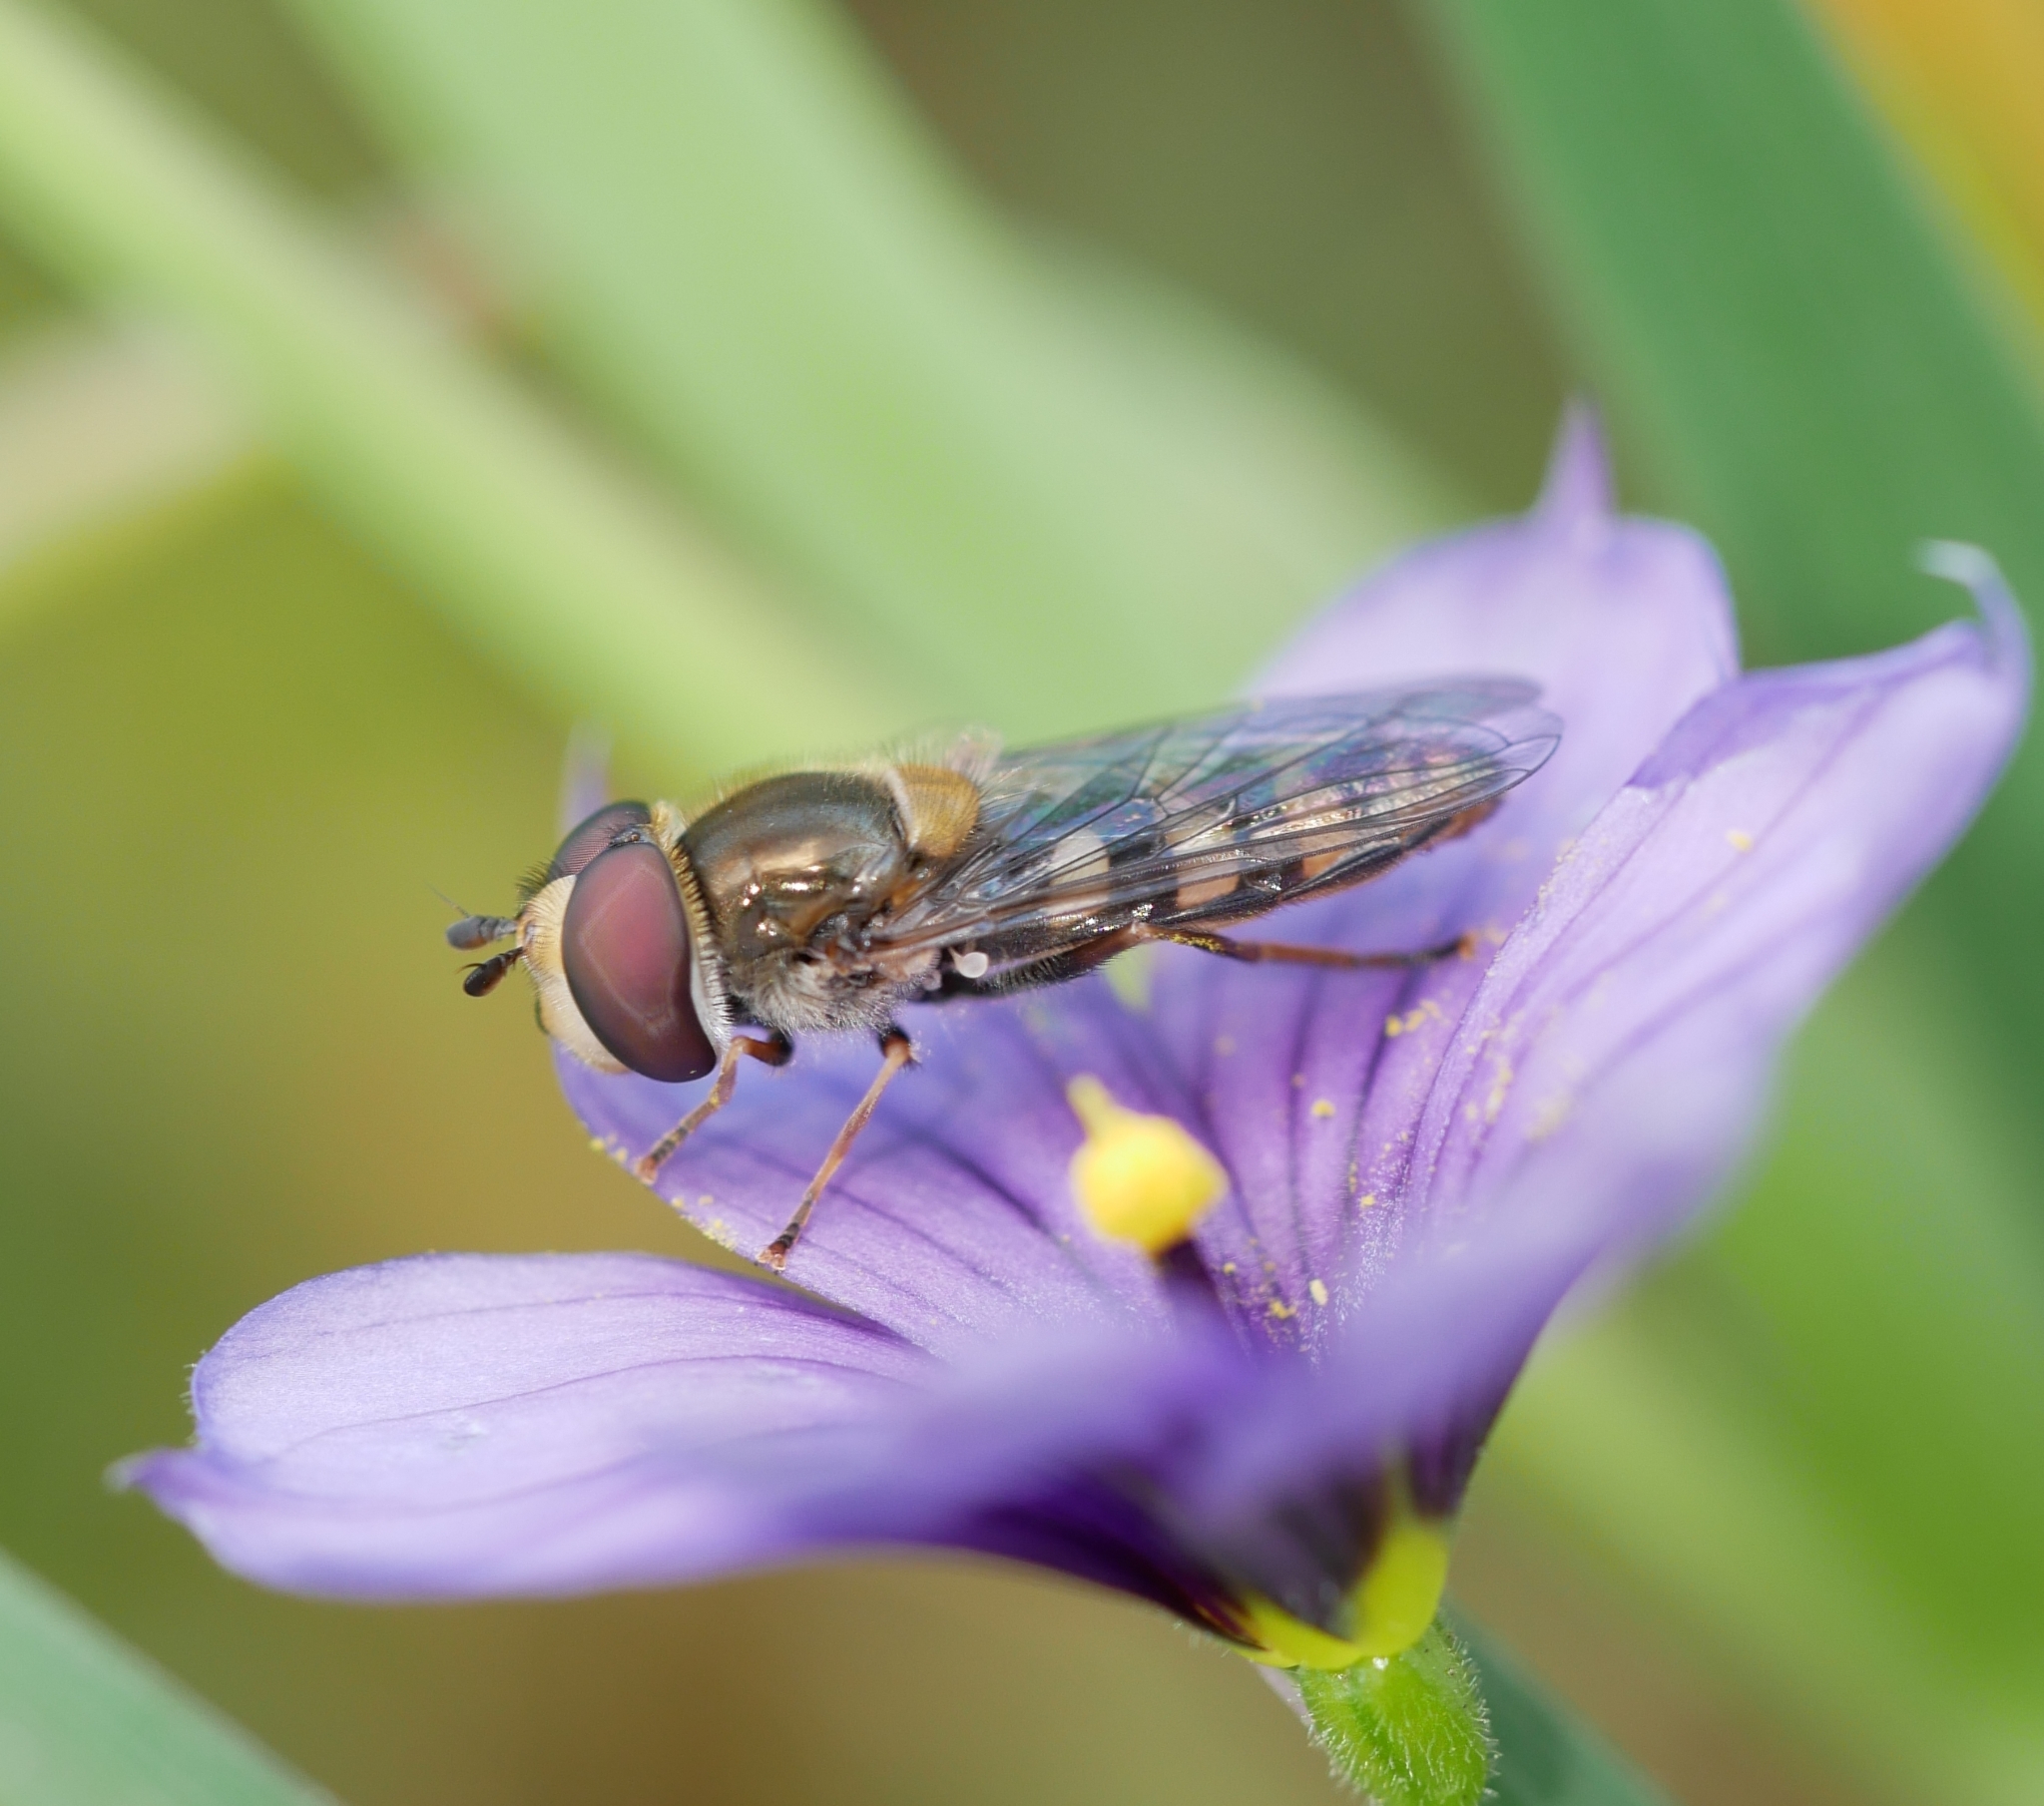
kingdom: Animalia
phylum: Arthropoda
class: Insecta
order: Diptera
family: Syrphidae
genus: Eupeodes
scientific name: Eupeodes fumipennis
